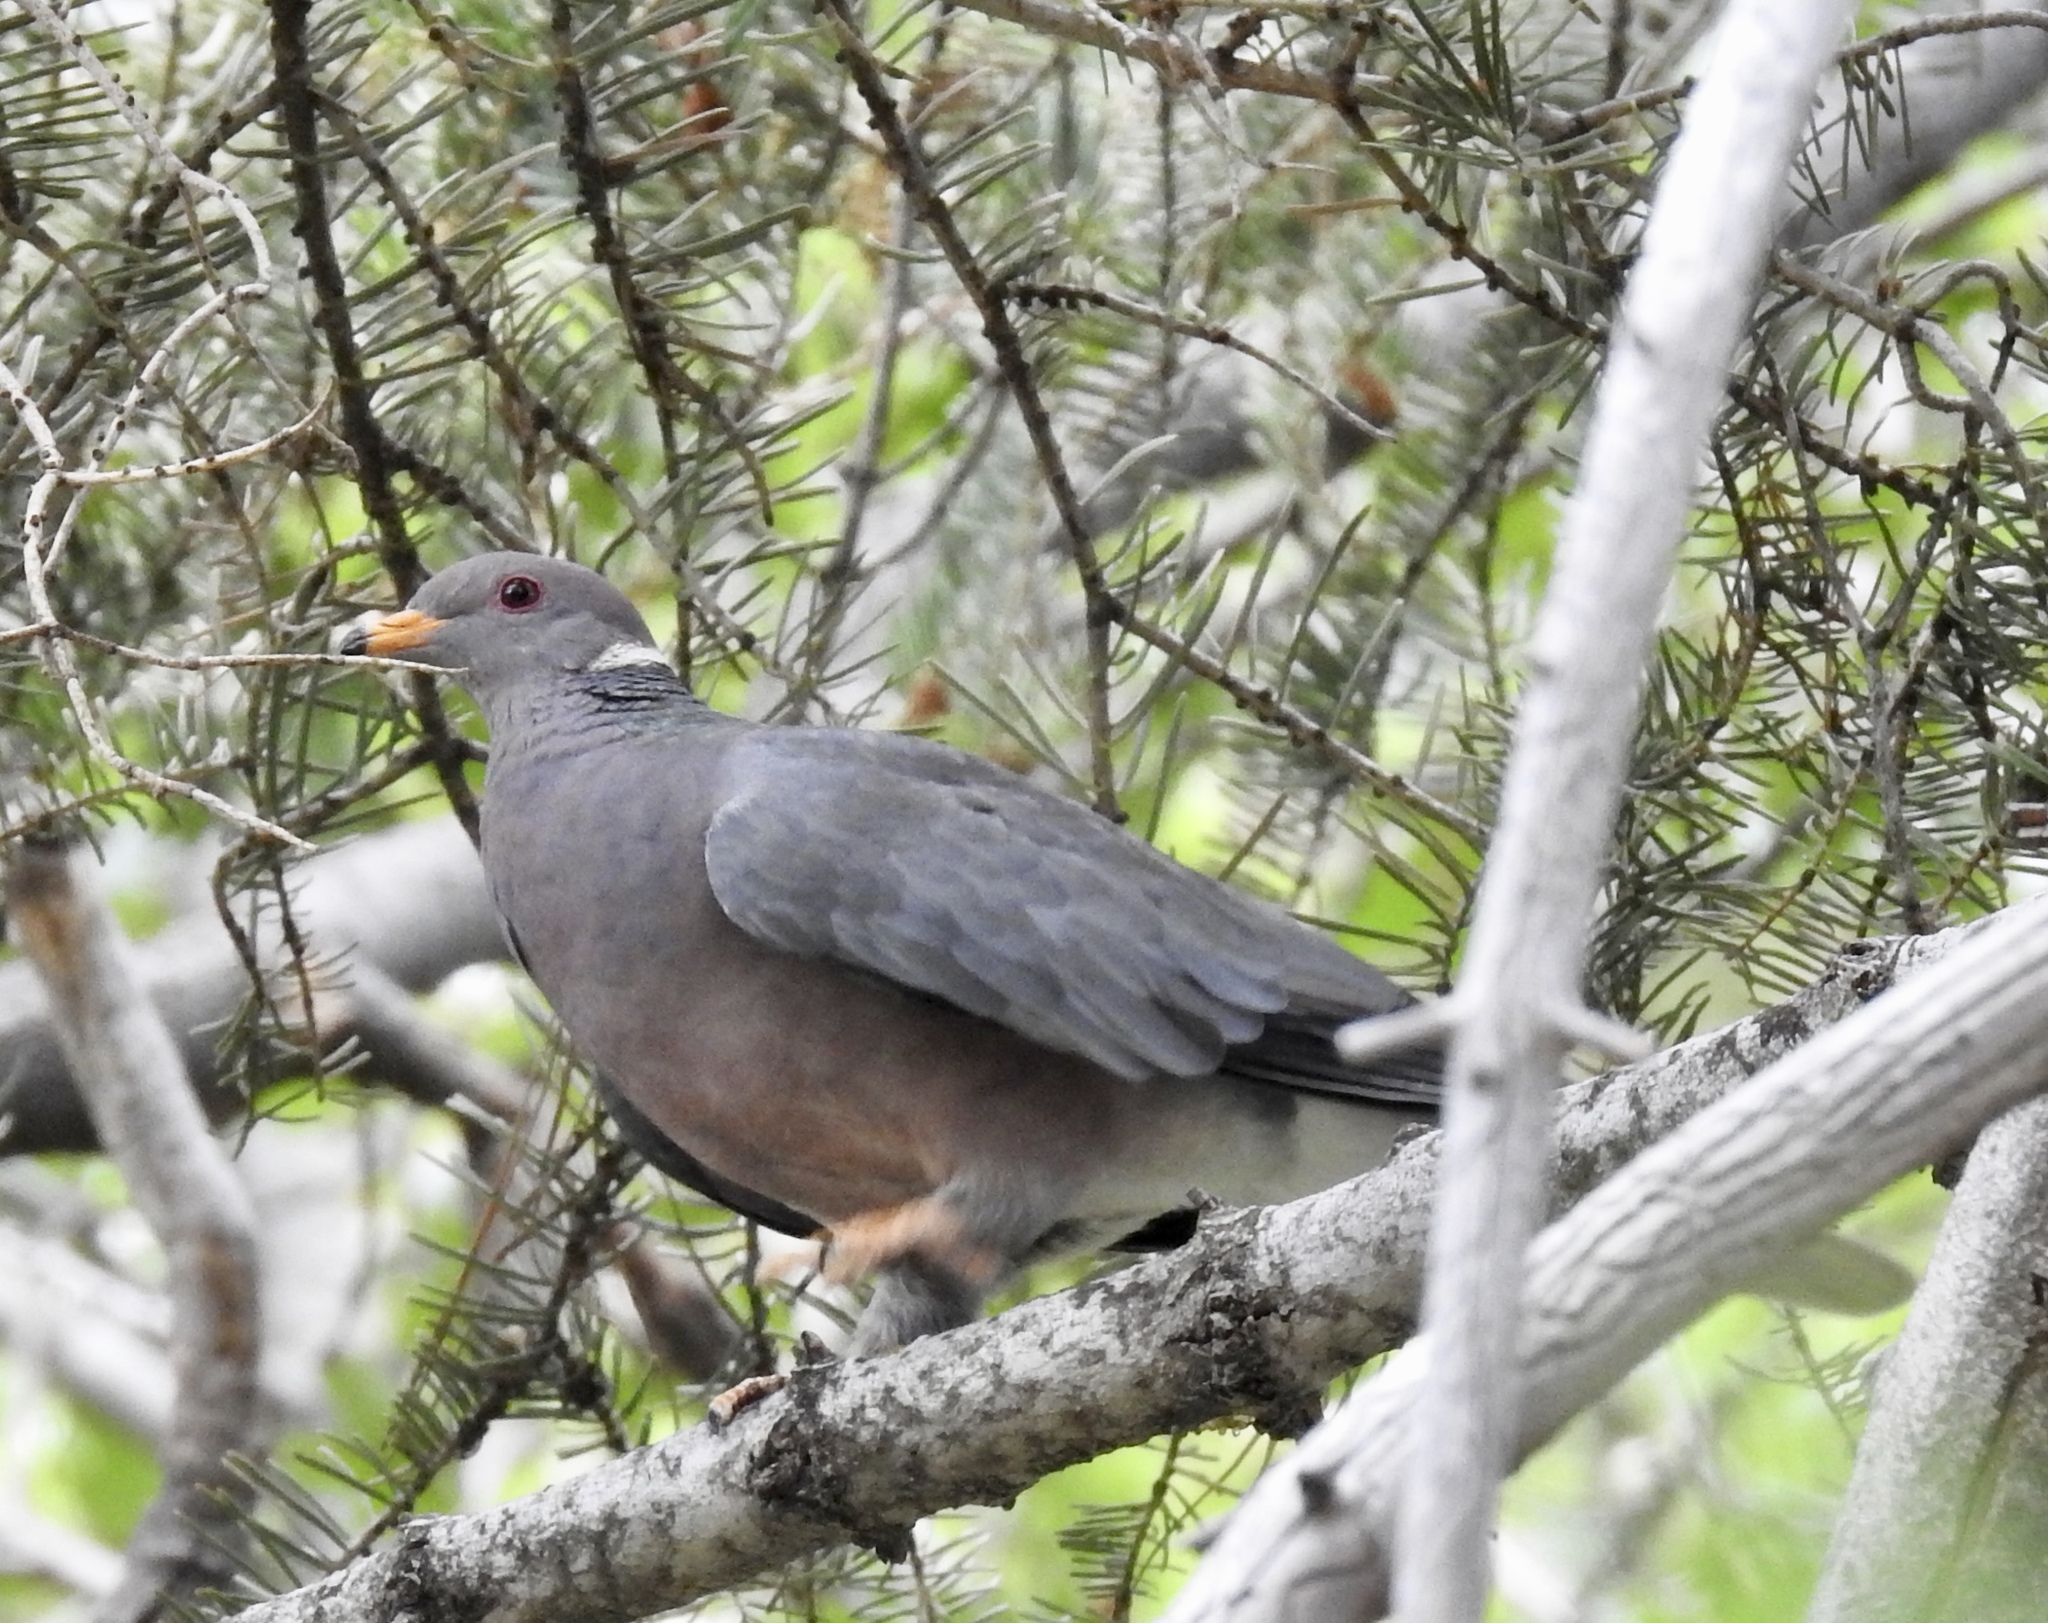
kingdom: Animalia
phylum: Chordata
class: Aves
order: Columbiformes
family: Columbidae
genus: Patagioenas
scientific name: Patagioenas fasciata
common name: Band-tailed pigeon
